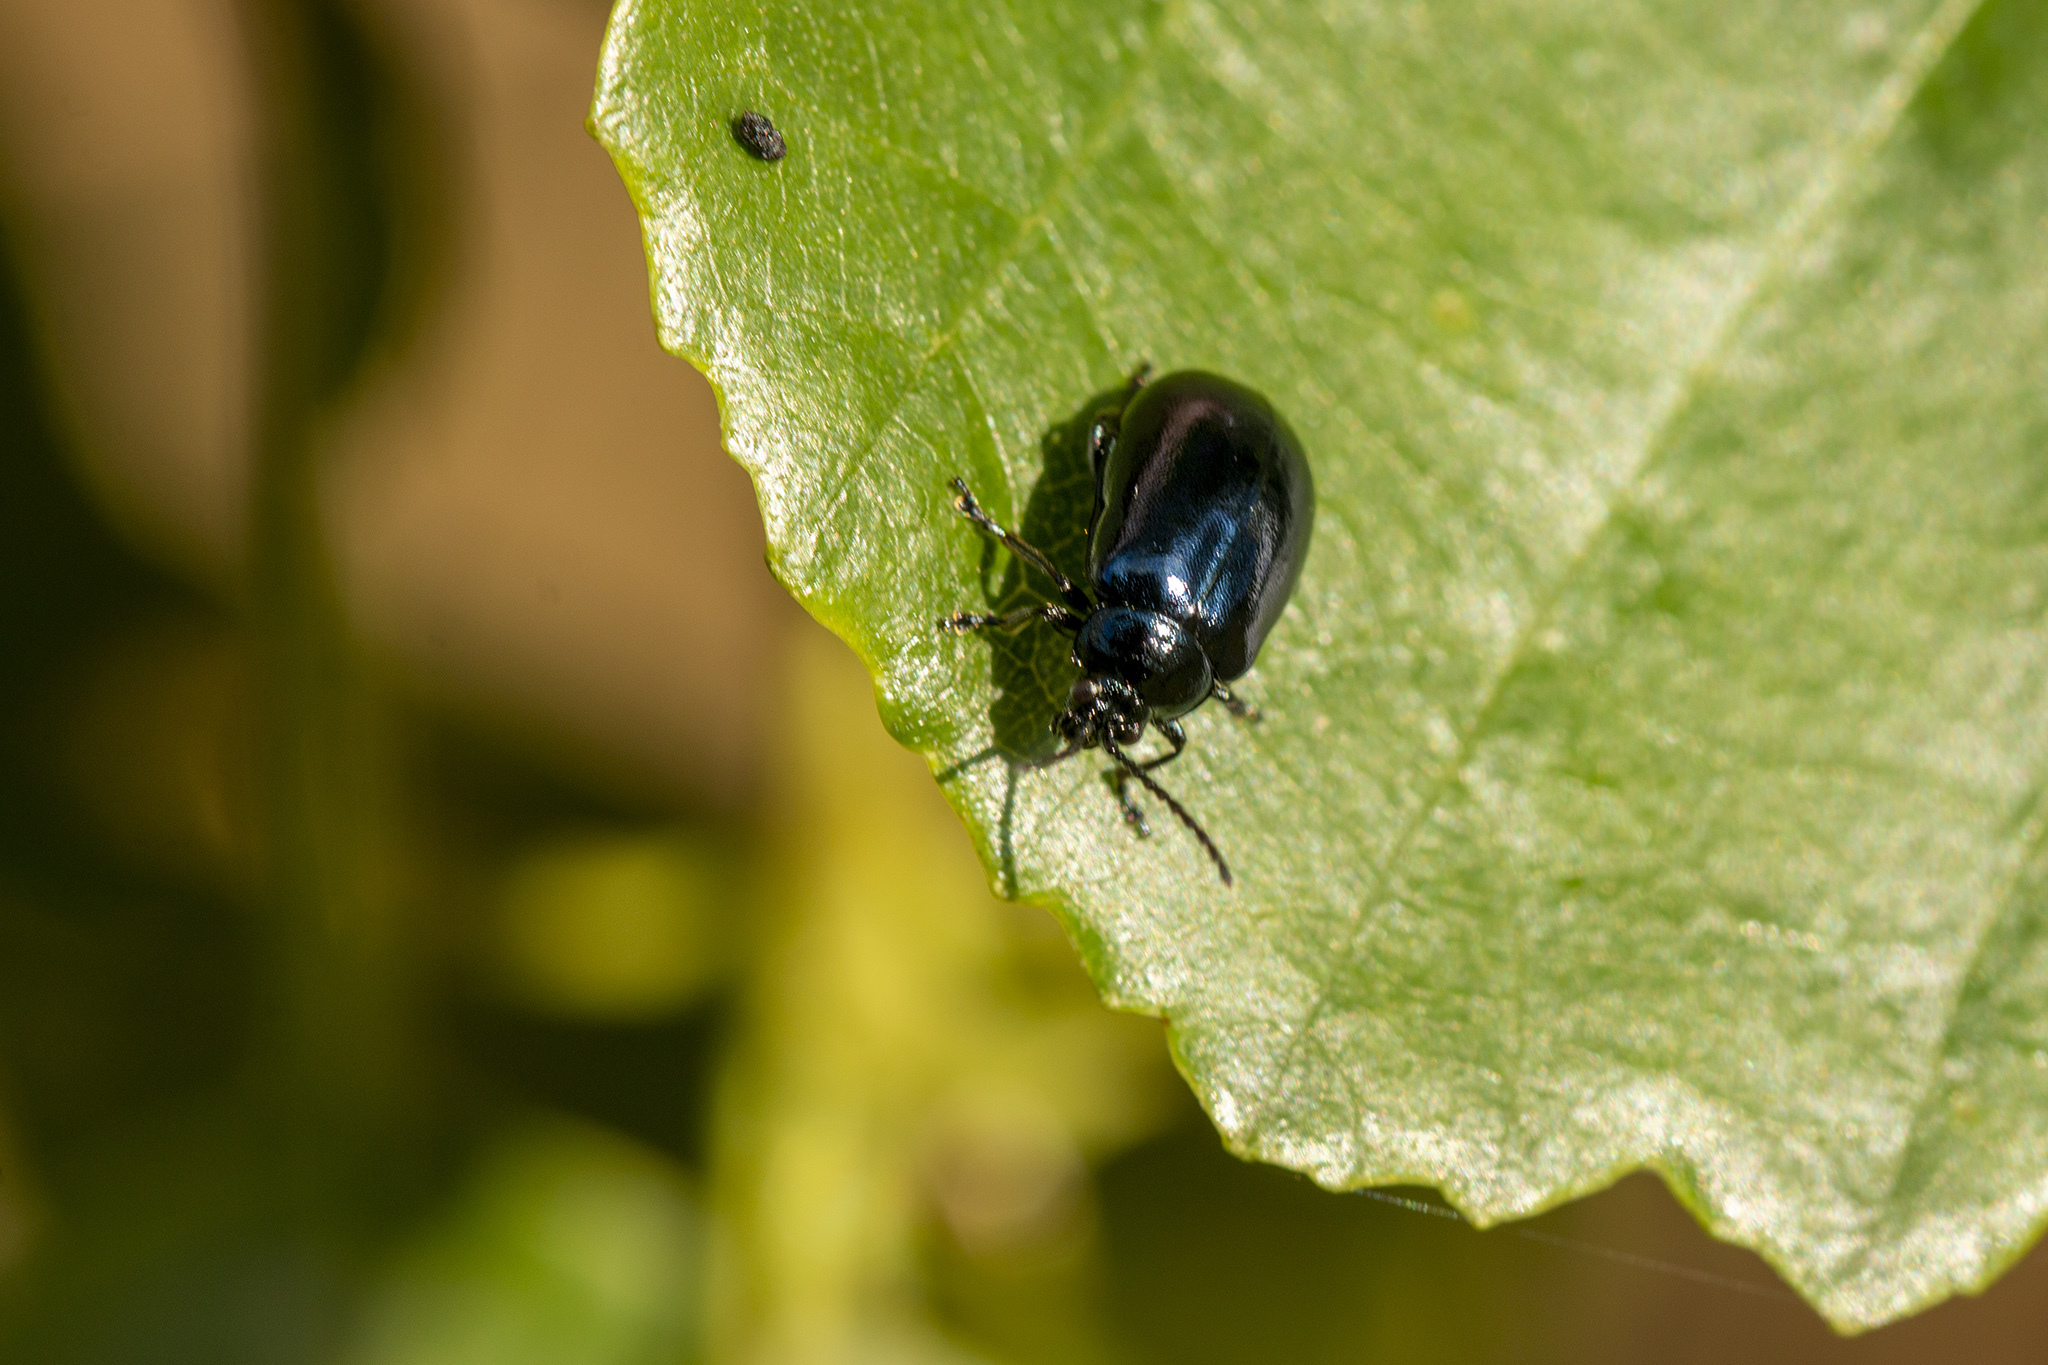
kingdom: Animalia
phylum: Arthropoda
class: Insecta
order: Coleoptera
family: Chrysomelidae
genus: Agelastica
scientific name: Agelastica alni
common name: Alder leaf beetle
